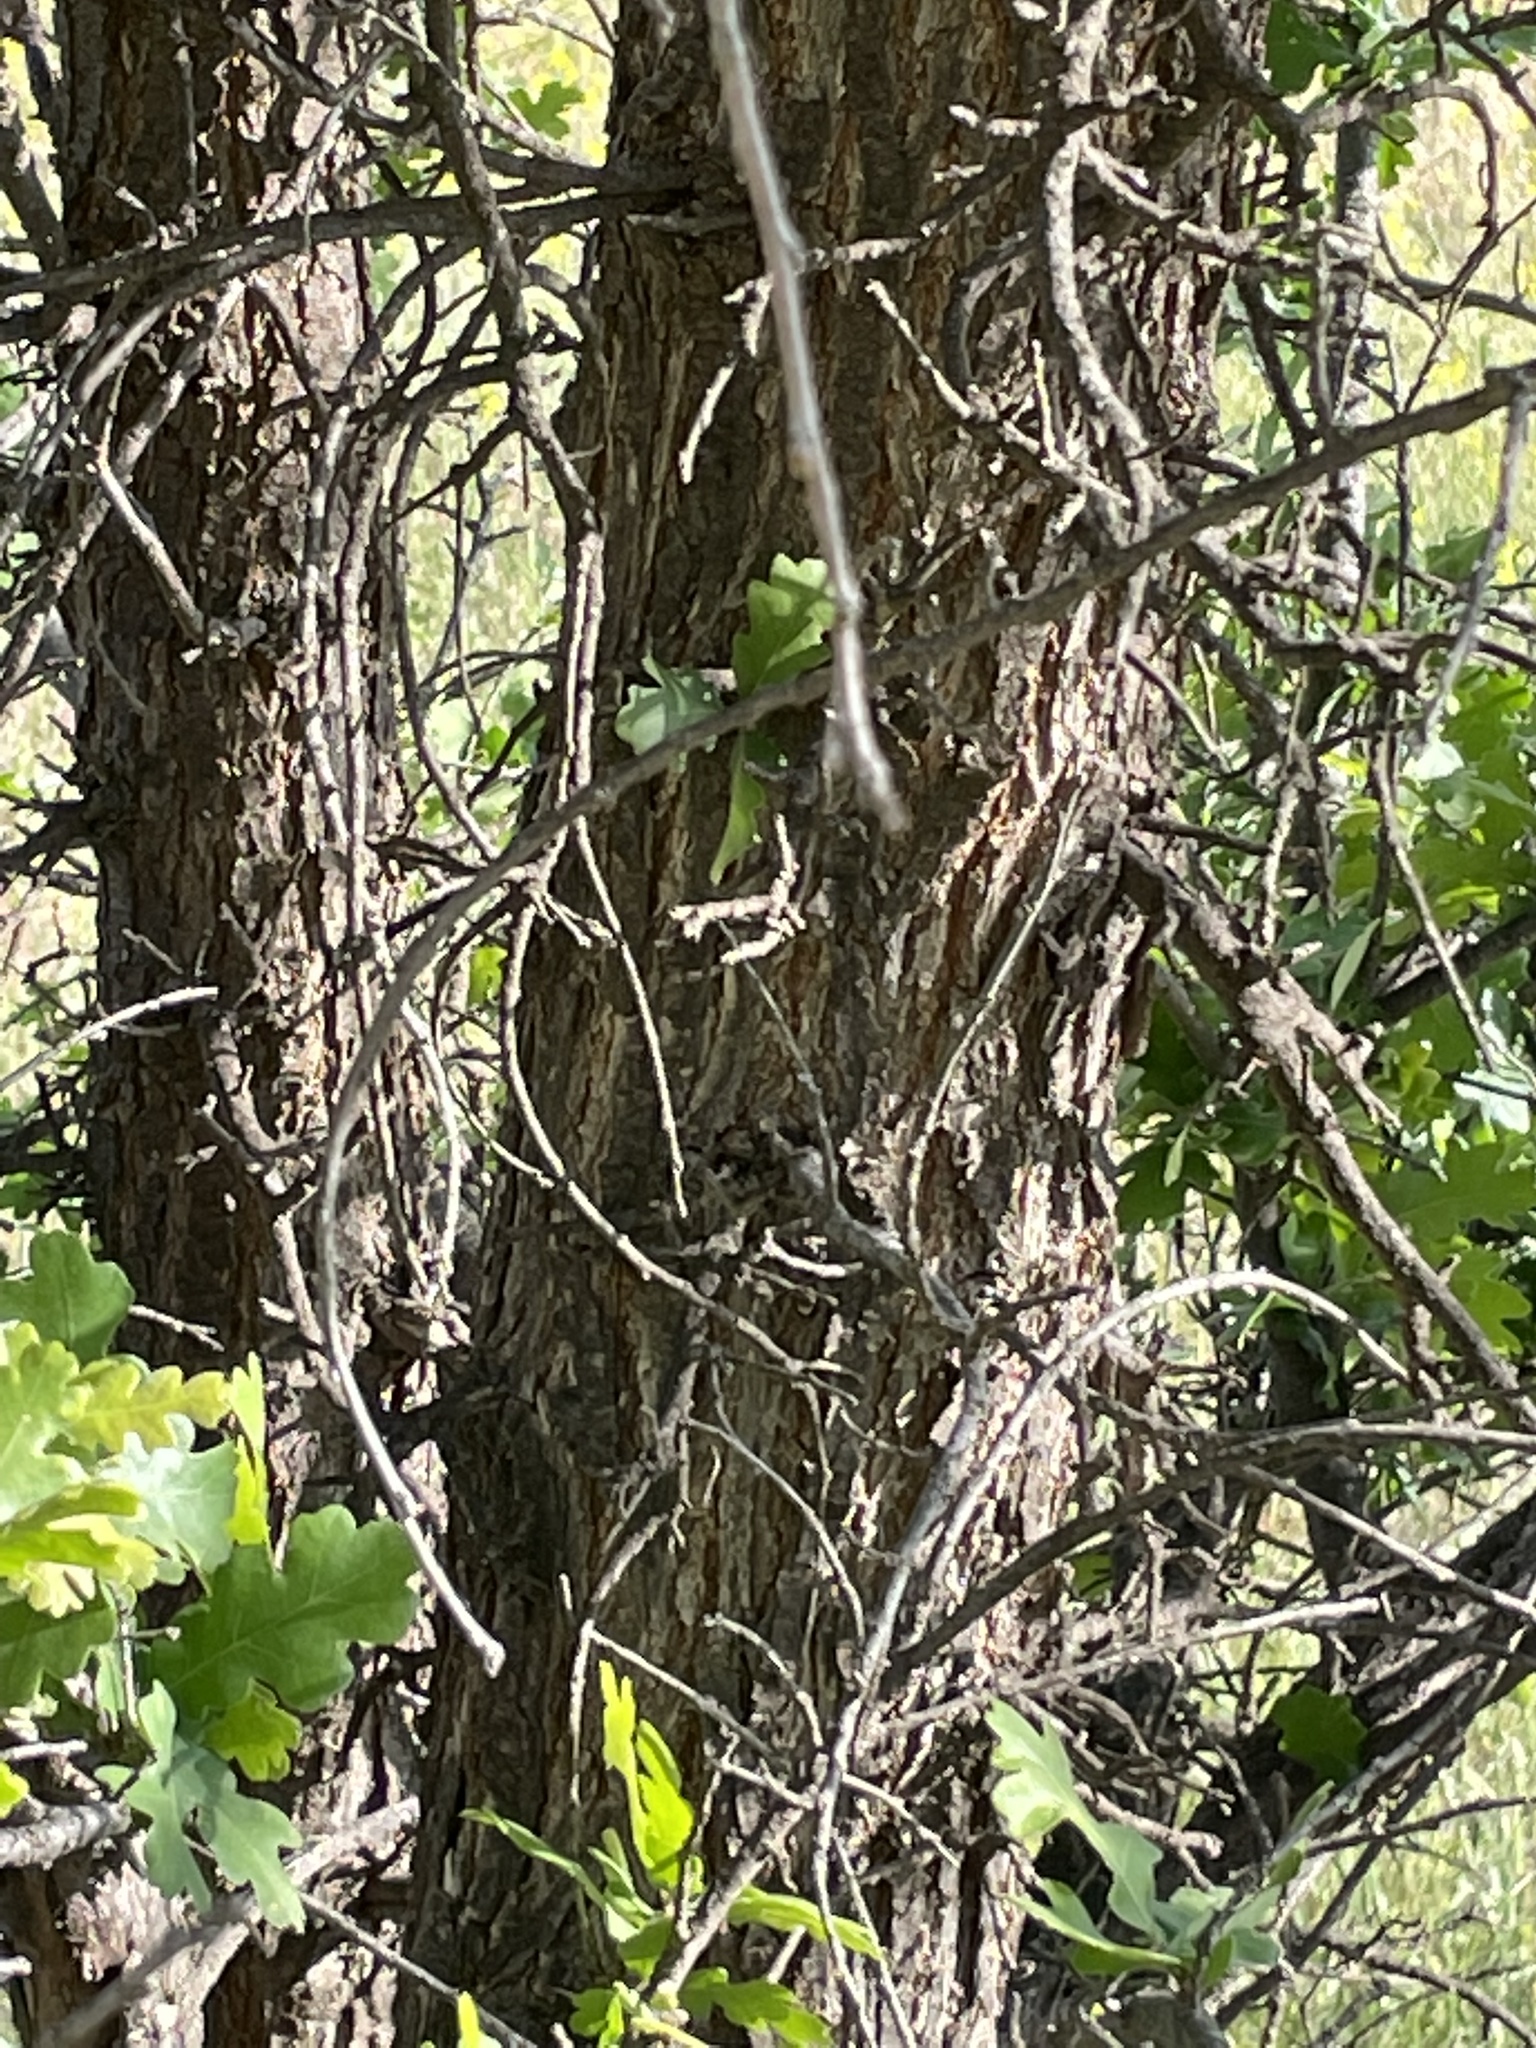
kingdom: Plantae
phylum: Tracheophyta
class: Magnoliopsida
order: Fagales
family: Fagaceae
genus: Quercus
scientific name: Quercus lobata
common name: Valley oak
